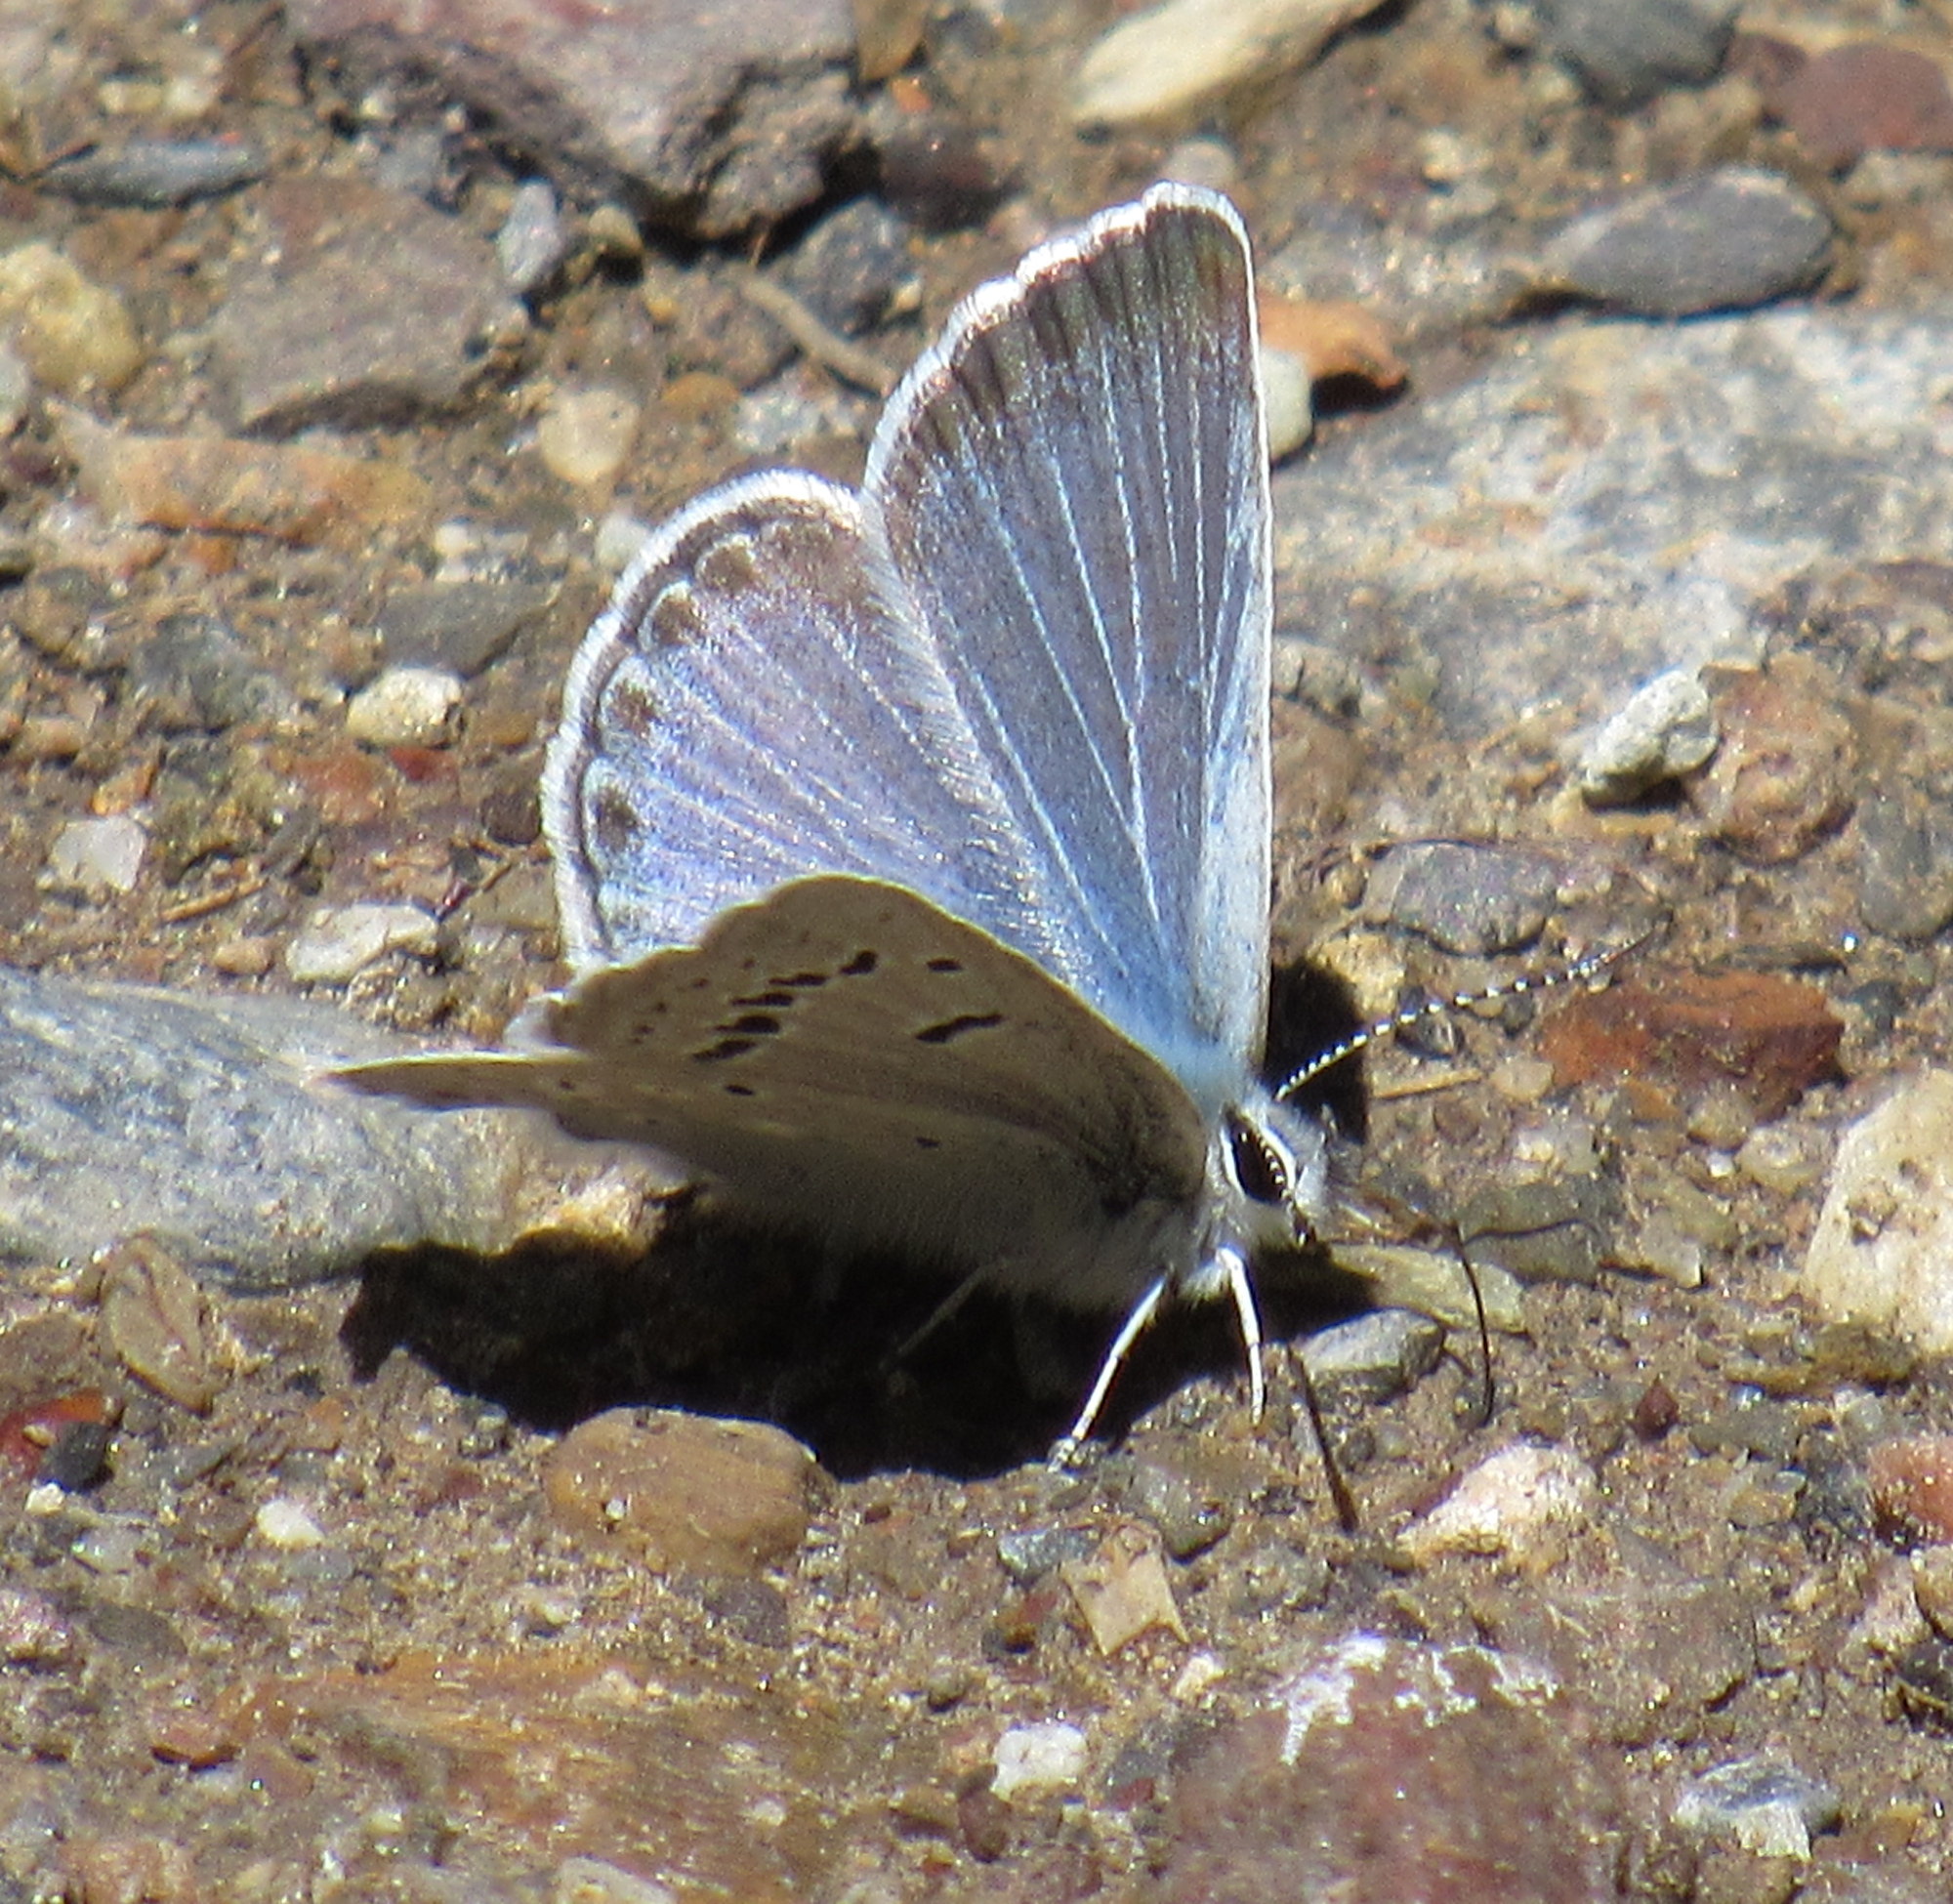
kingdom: Animalia
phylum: Arthropoda
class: Insecta
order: Lepidoptera
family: Lycaenidae
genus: Icaricia
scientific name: Icaricia icarioides
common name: Boisduval's blue
